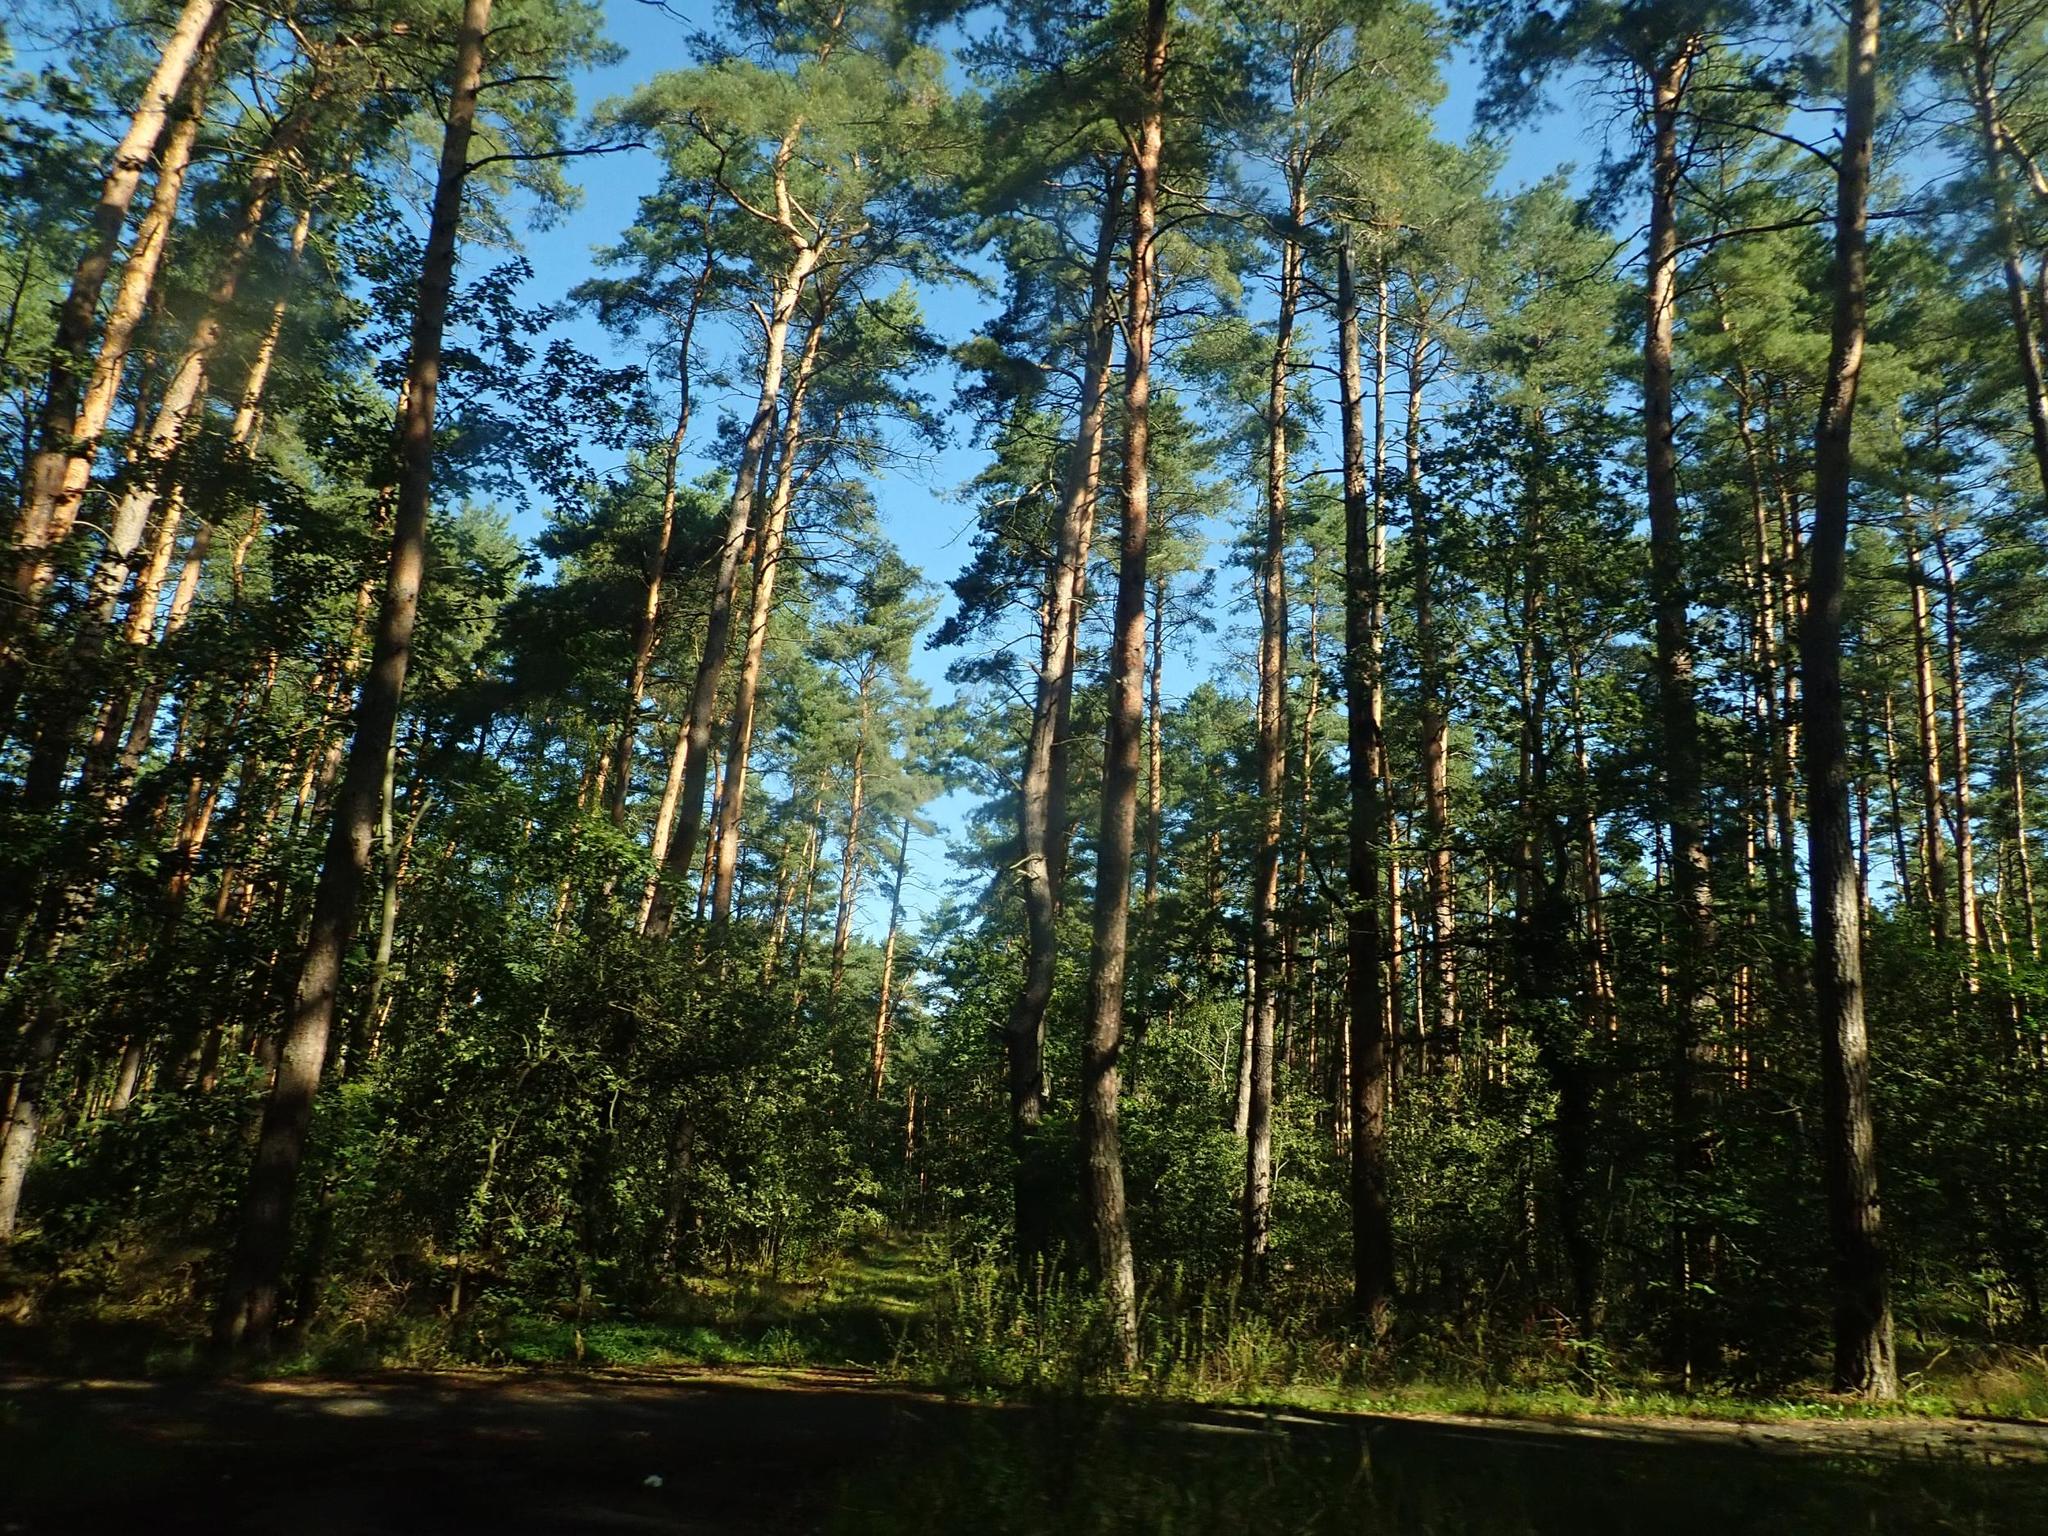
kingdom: Plantae
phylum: Tracheophyta
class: Pinopsida
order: Pinales
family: Pinaceae
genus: Pinus
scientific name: Pinus sylvestris
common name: Scots pine
